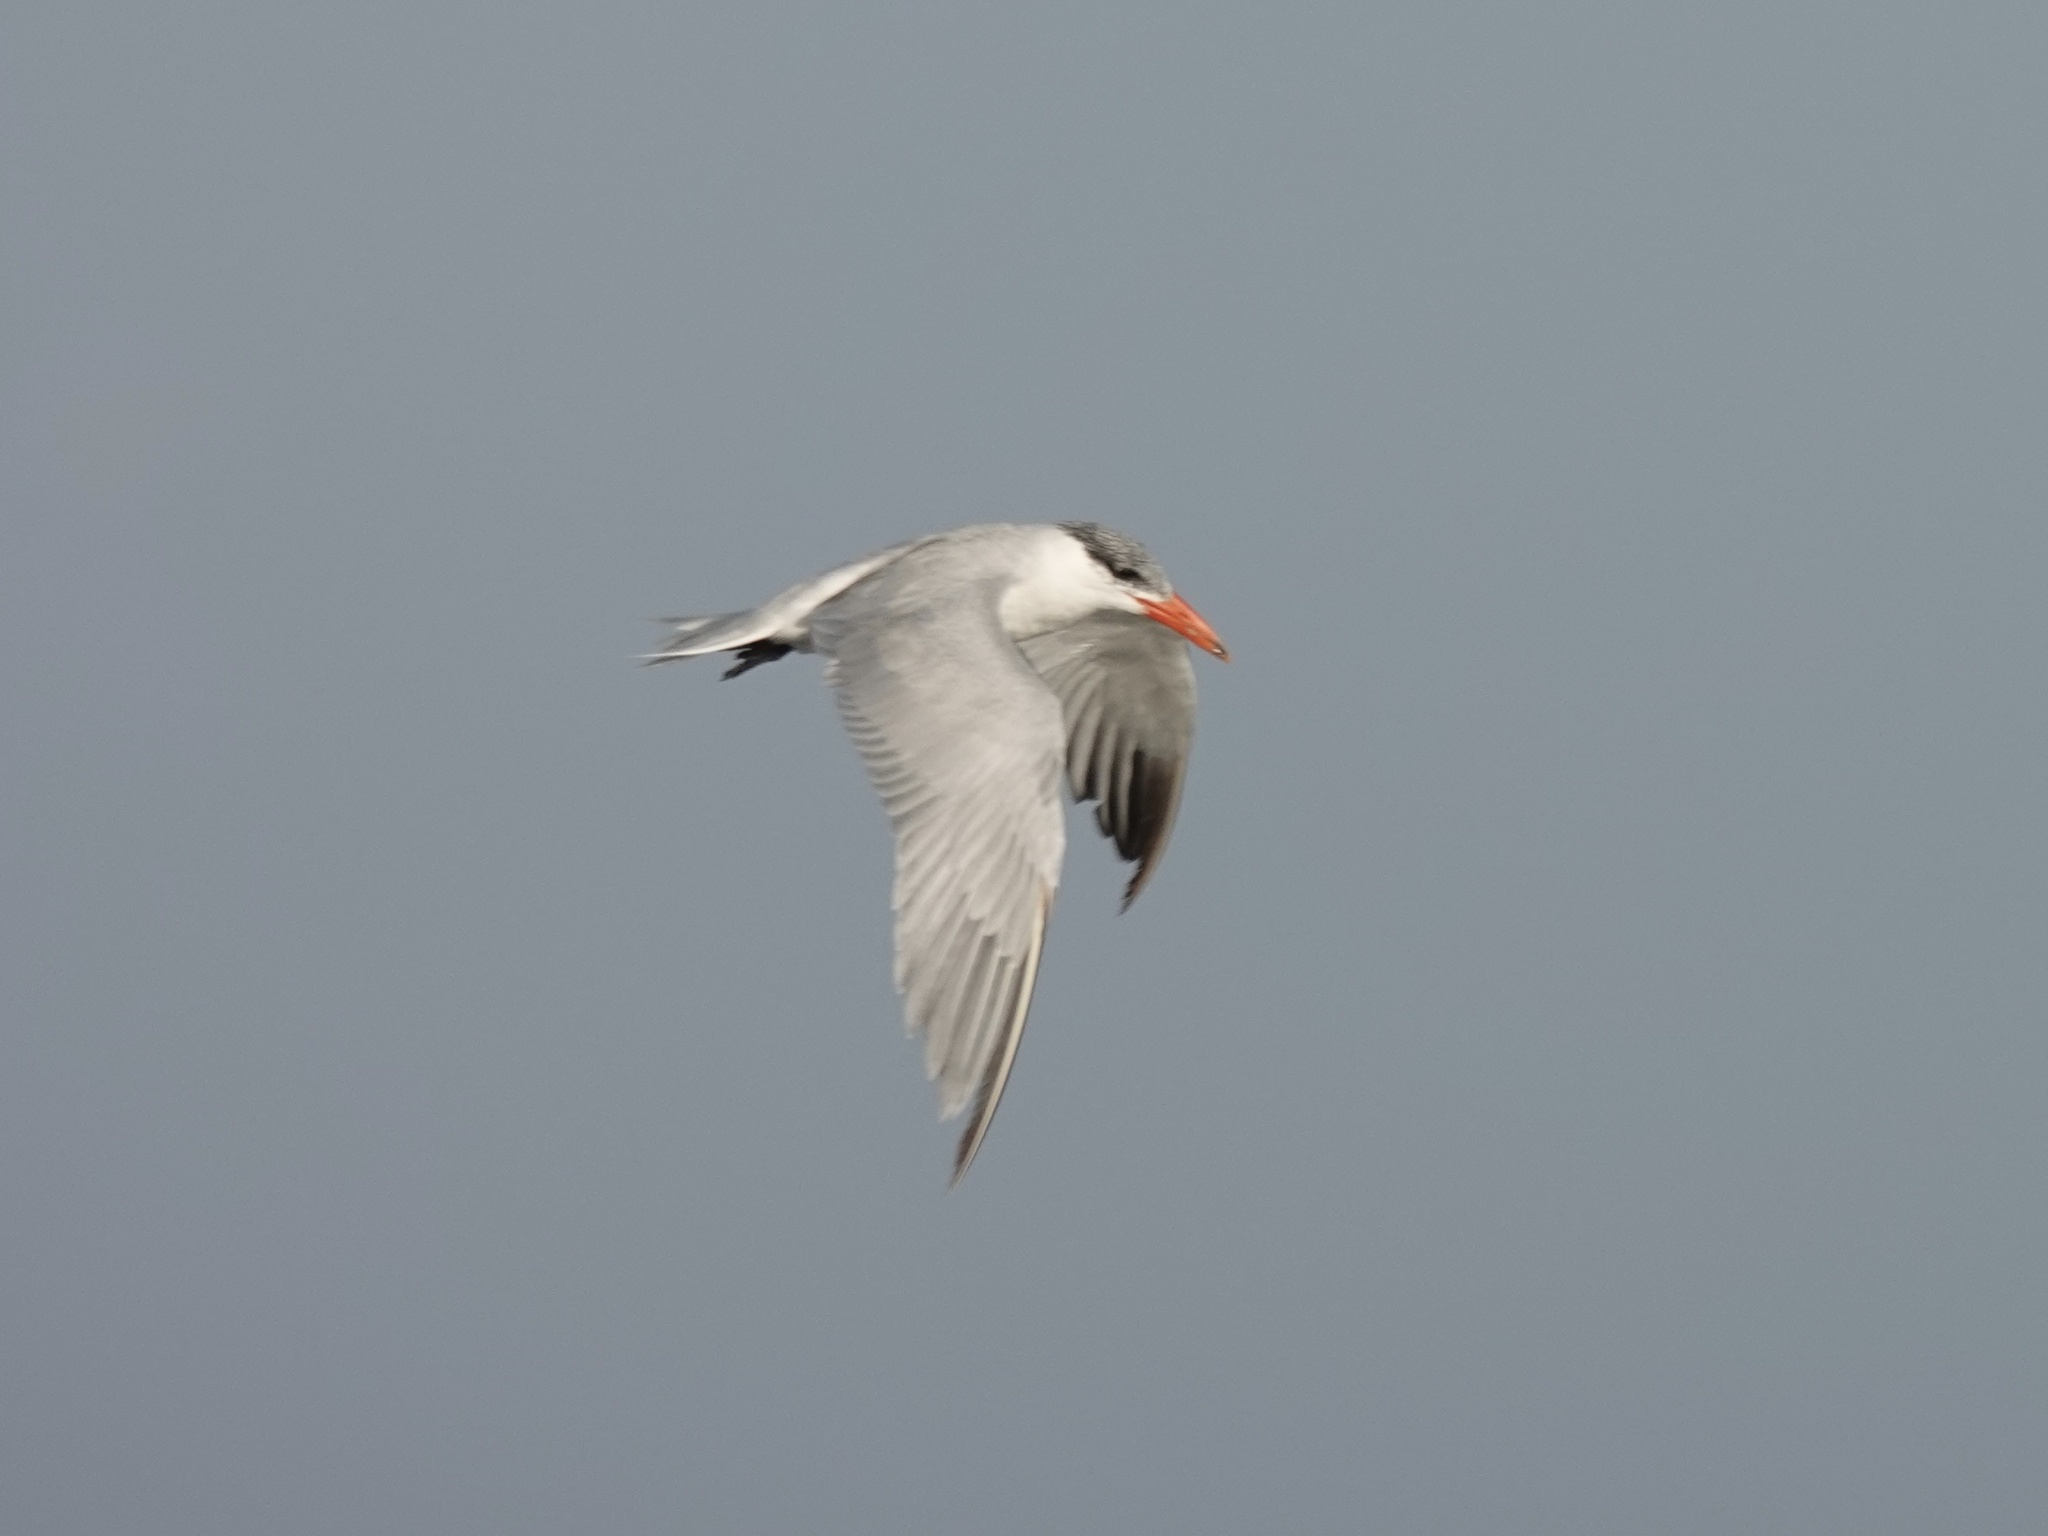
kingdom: Animalia
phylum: Chordata
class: Aves
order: Charadriiformes
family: Laridae
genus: Hydroprogne
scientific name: Hydroprogne caspia
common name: Caspian tern
